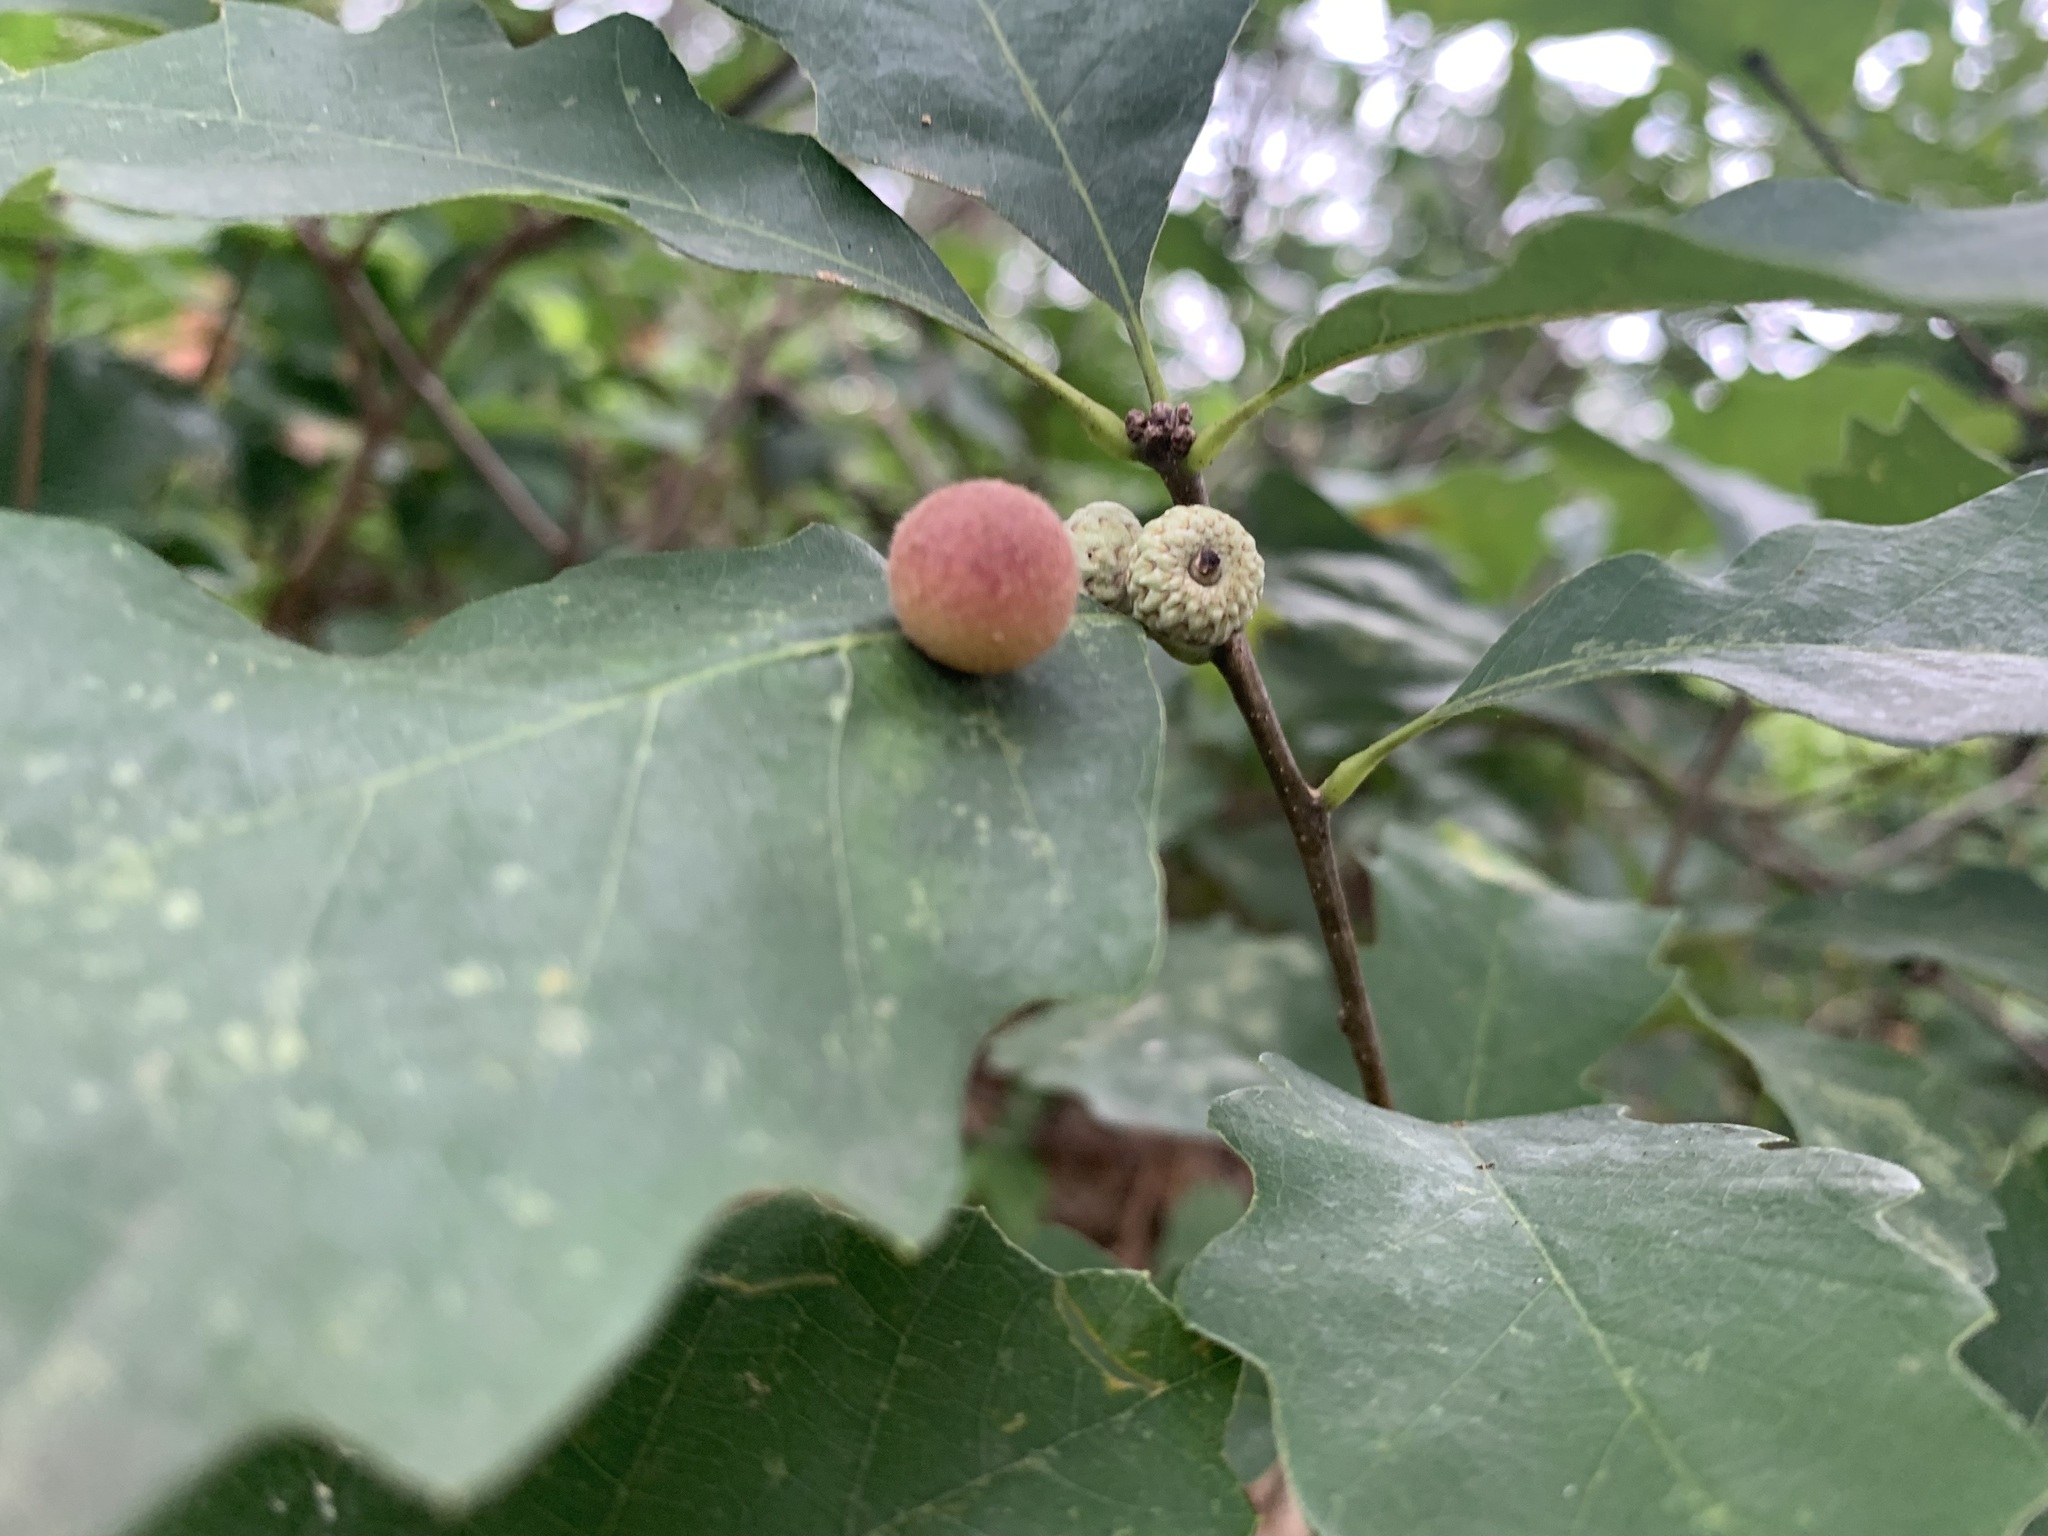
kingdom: Animalia
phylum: Arthropoda
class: Insecta
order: Hymenoptera
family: Cynipidae
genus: Philonix
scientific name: Philonix fulvicollis
